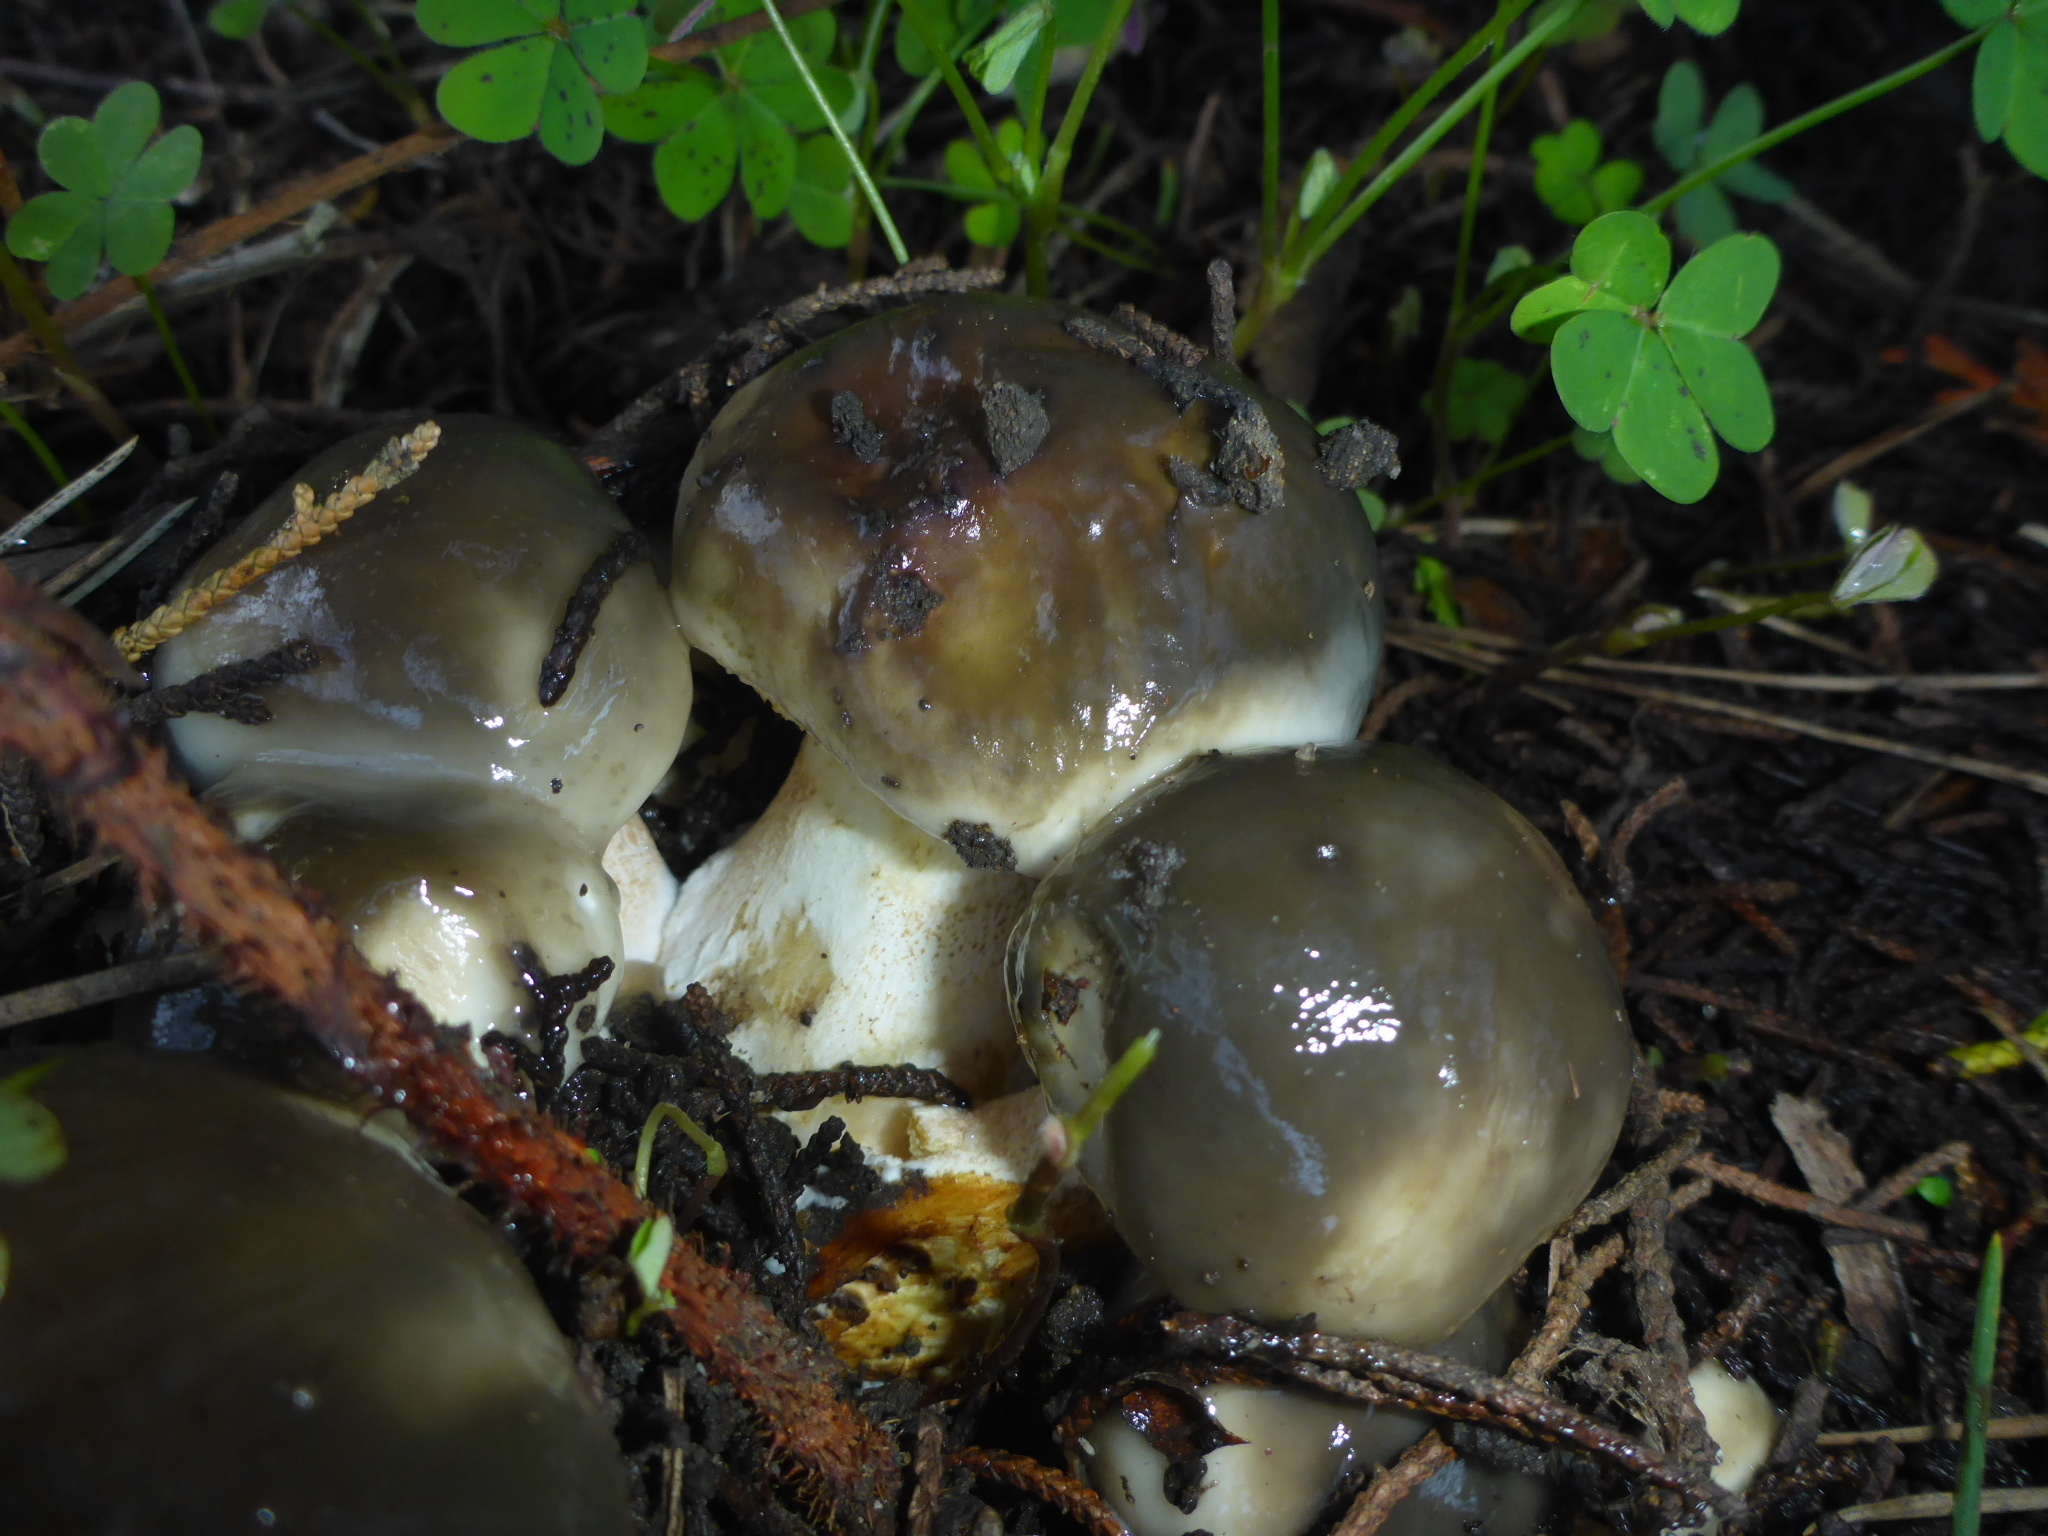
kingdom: Fungi
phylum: Basidiomycota
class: Agaricomycetes
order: Boletales
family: Suillaceae
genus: Suillus
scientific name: Suillus pungens
